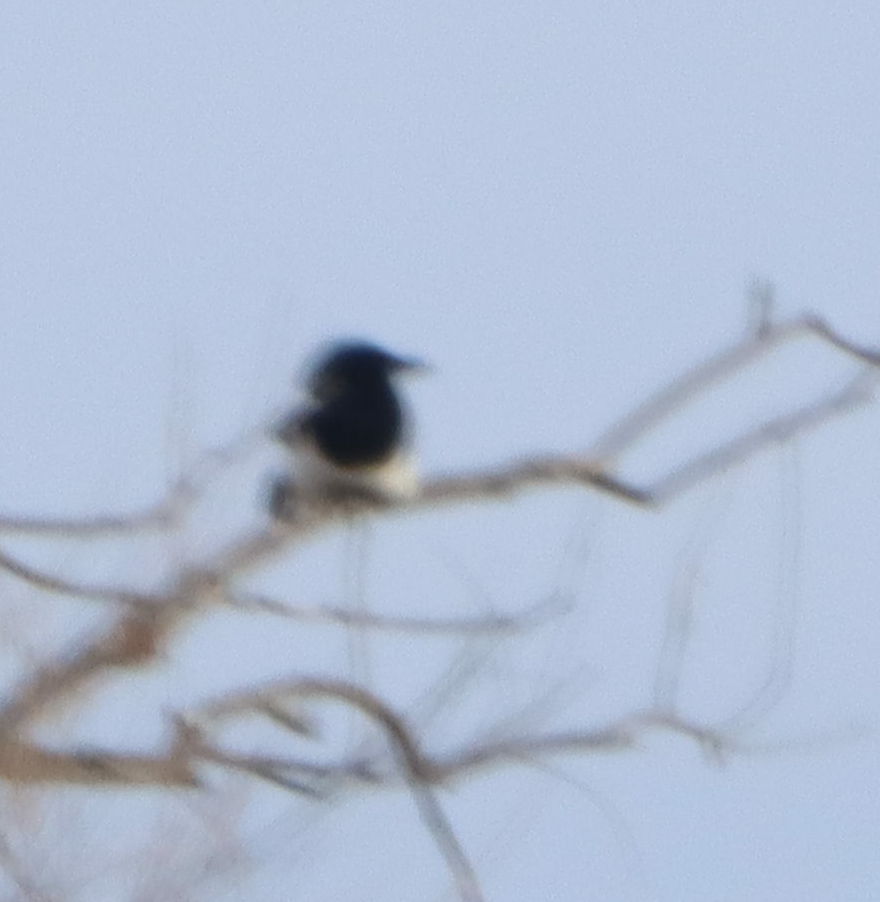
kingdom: Animalia
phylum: Chordata
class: Aves
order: Passeriformes
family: Corvidae
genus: Pica
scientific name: Pica hudsonia
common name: Black-billed magpie
